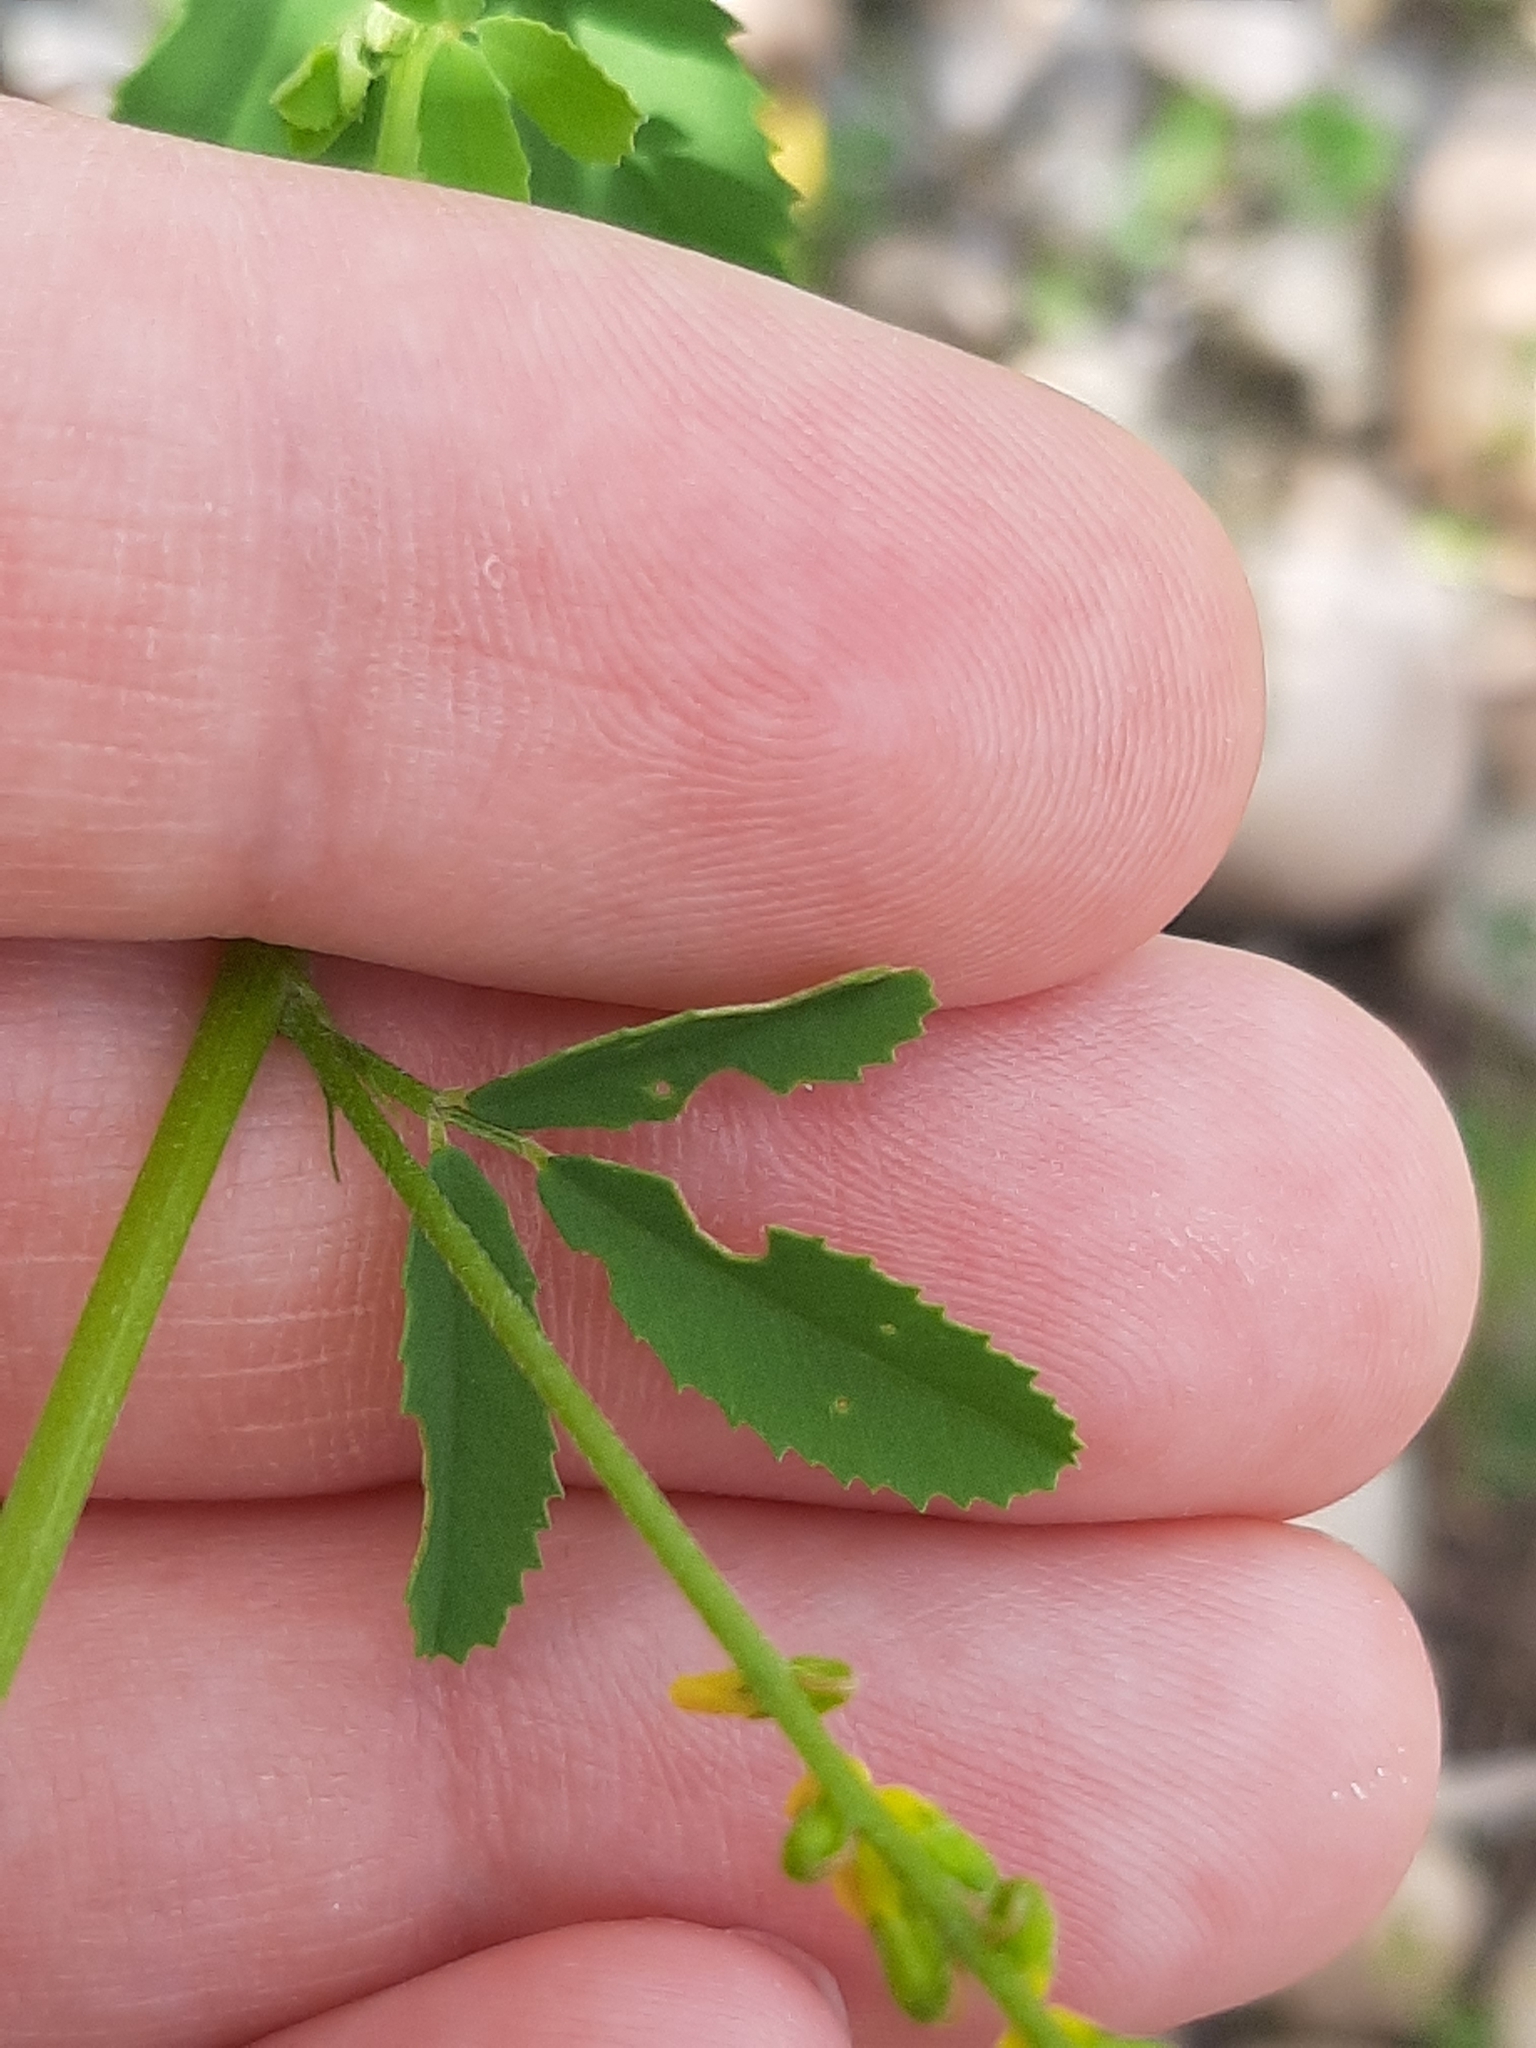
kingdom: Plantae
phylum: Tracheophyta
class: Magnoliopsida
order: Fabales
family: Fabaceae
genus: Melilotus
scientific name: Melilotus officinalis
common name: Sweetclover
